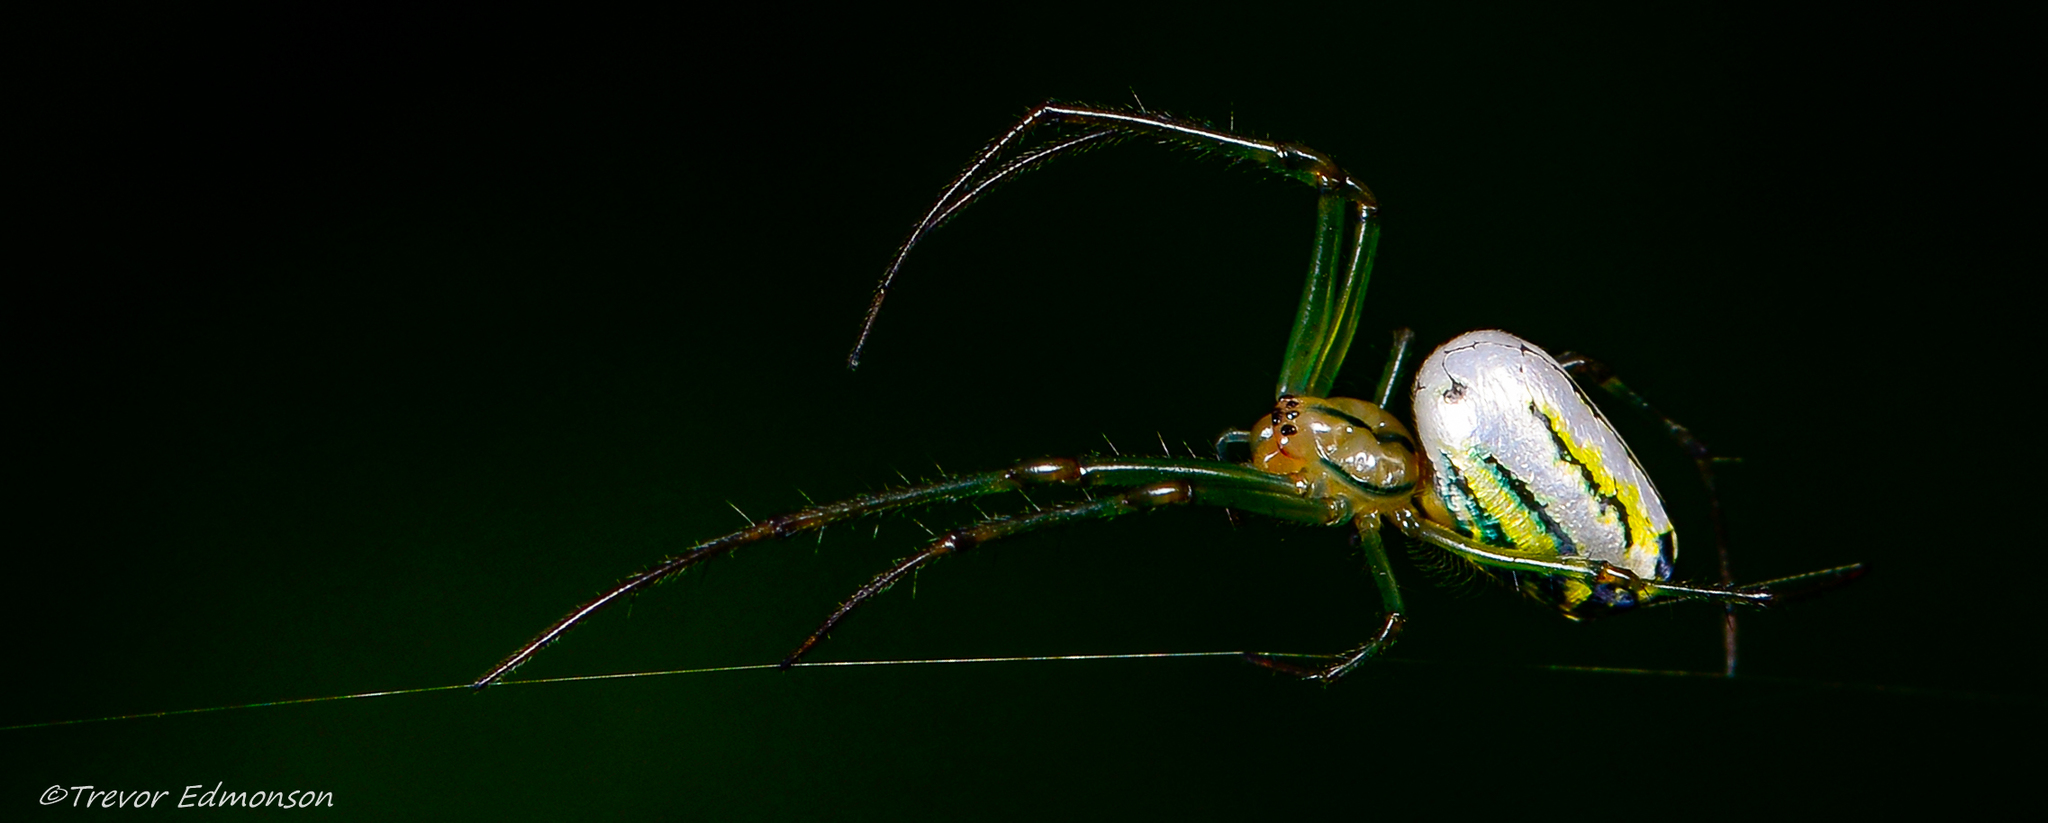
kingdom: Animalia
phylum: Arthropoda
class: Arachnida
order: Araneae
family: Tetragnathidae
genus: Leucauge
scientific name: Leucauge venusta
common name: Longjawed orb weavers
